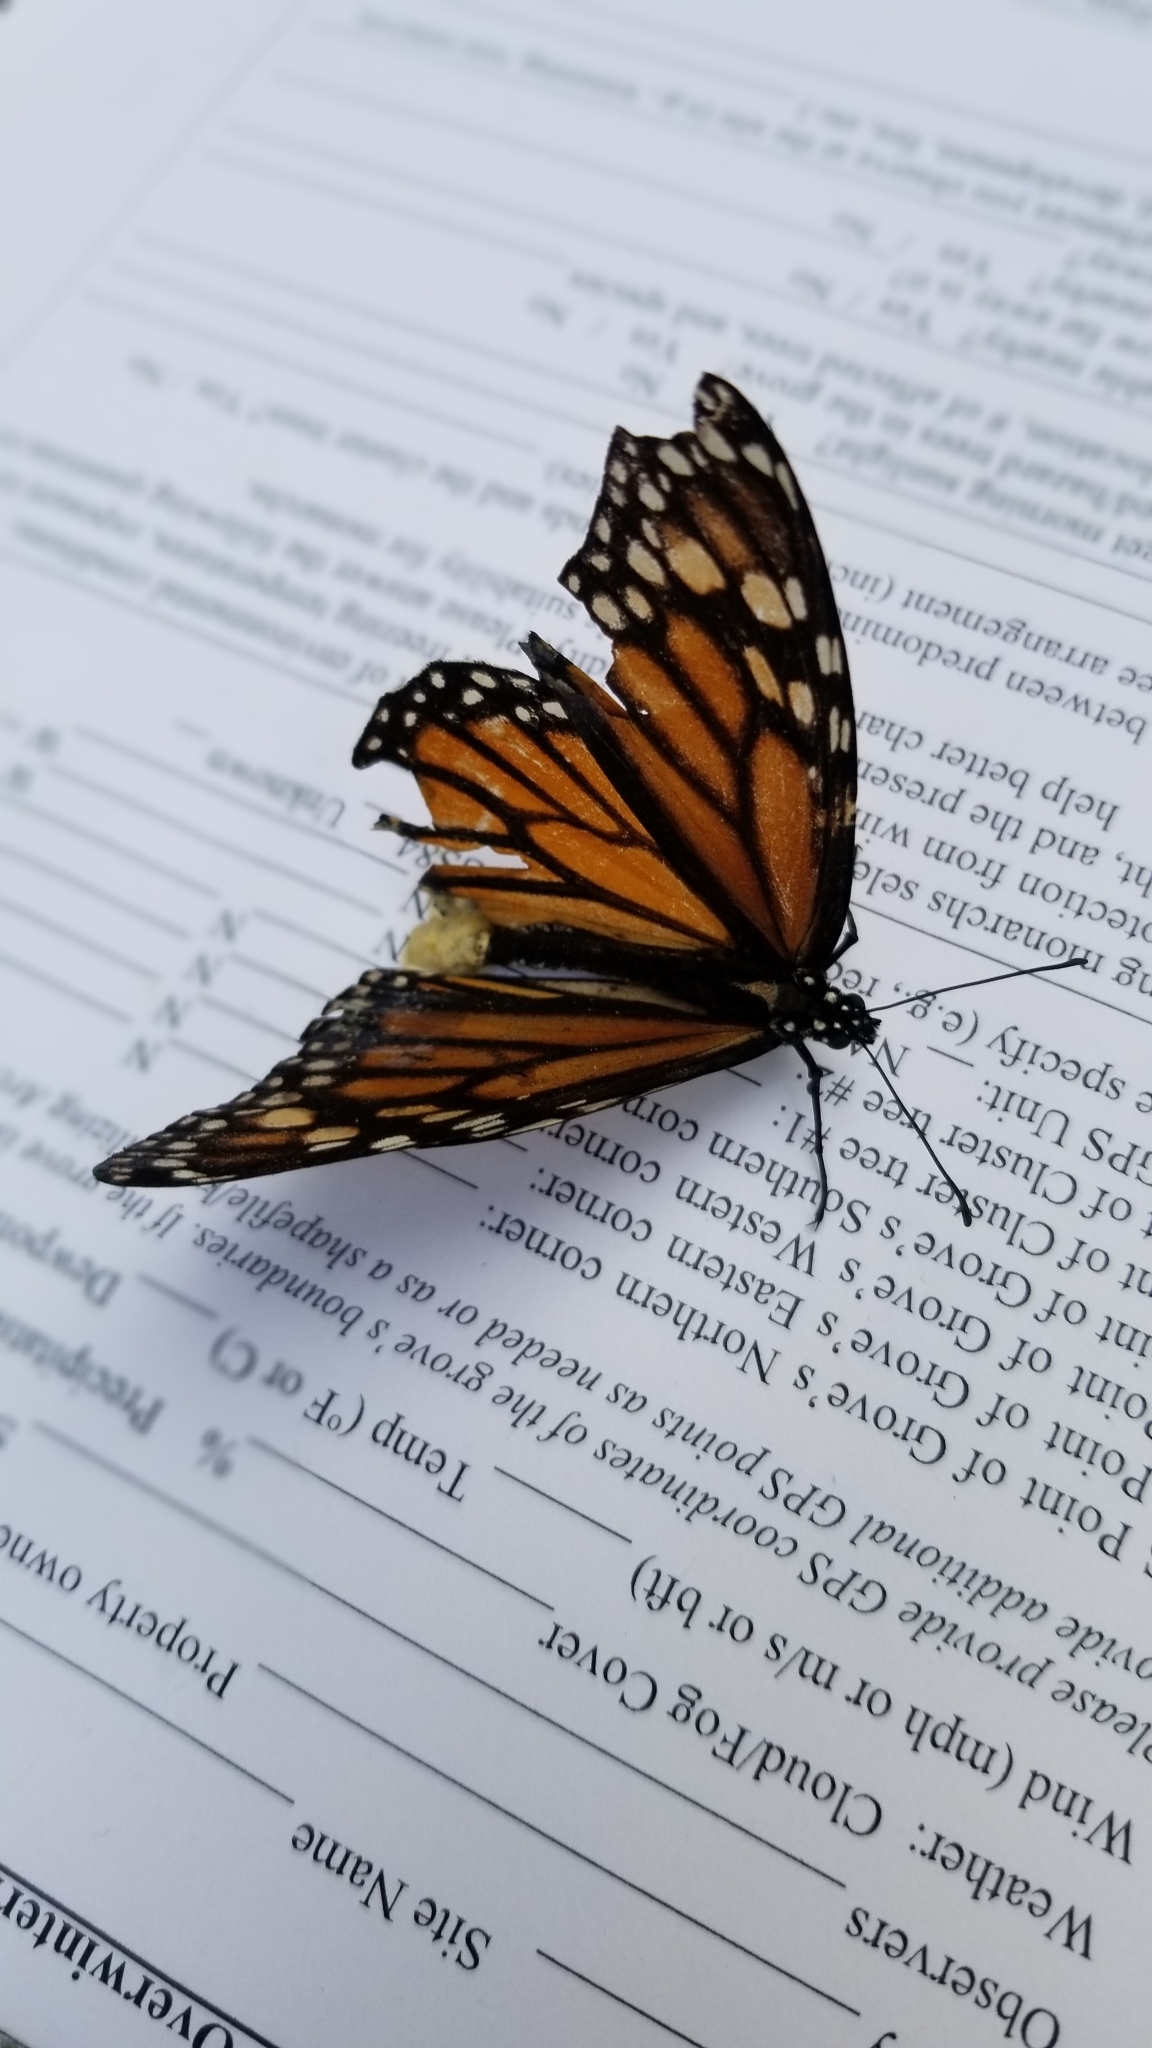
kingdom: Animalia
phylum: Arthropoda
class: Insecta
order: Lepidoptera
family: Nymphalidae
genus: Danaus
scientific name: Danaus plexippus
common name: Monarch
